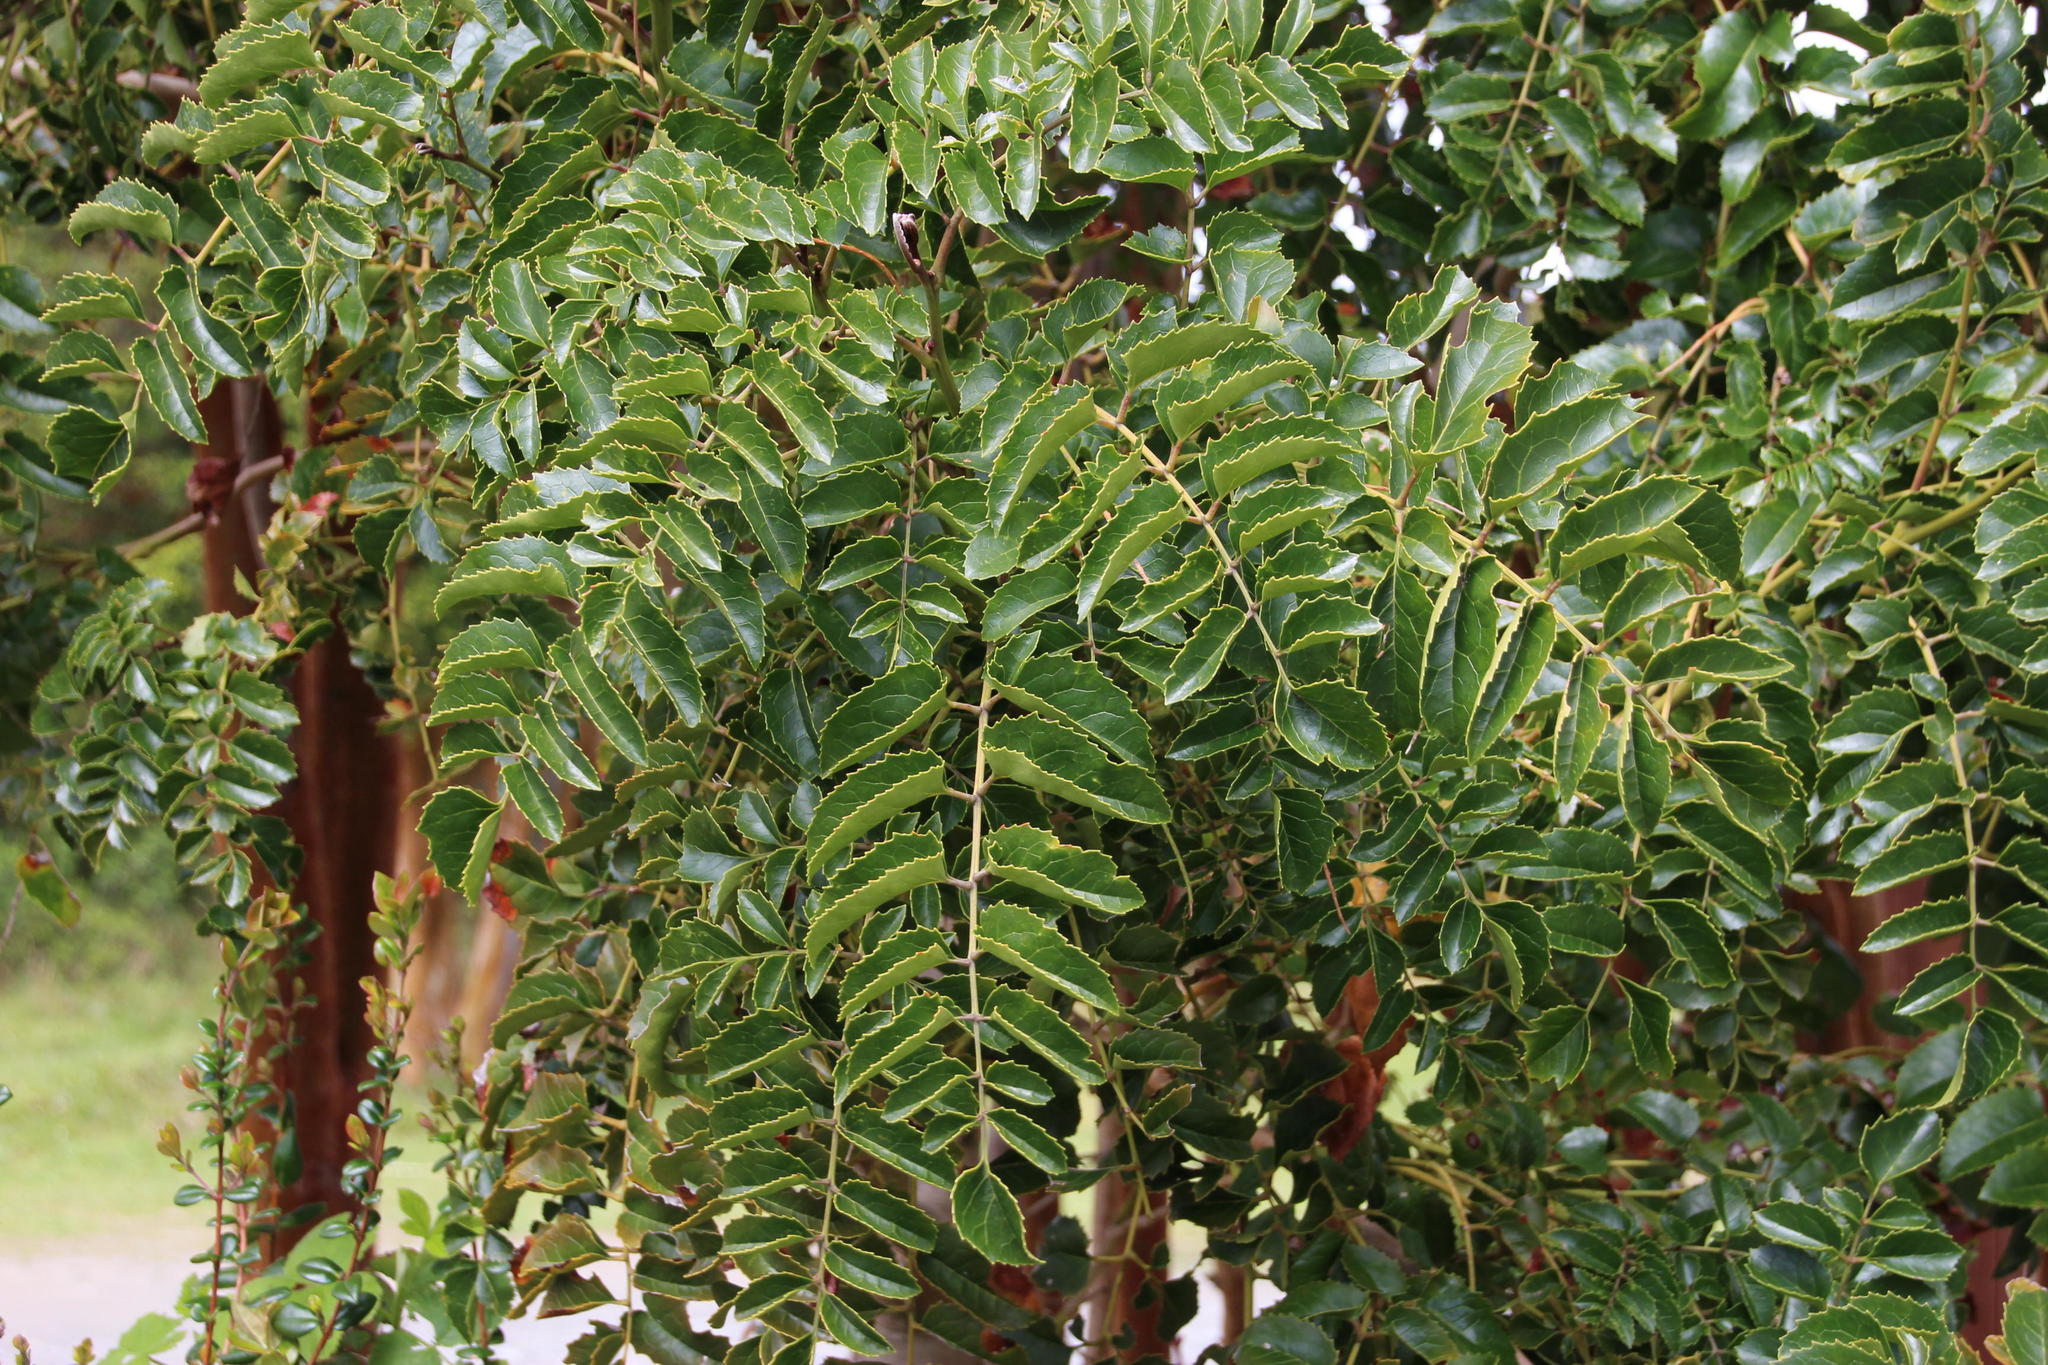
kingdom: Plantae
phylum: Tracheophyta
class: Magnoliopsida
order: Proteales
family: Proteaceae
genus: Gevuina
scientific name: Gevuina avellana
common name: Chilean hazel
